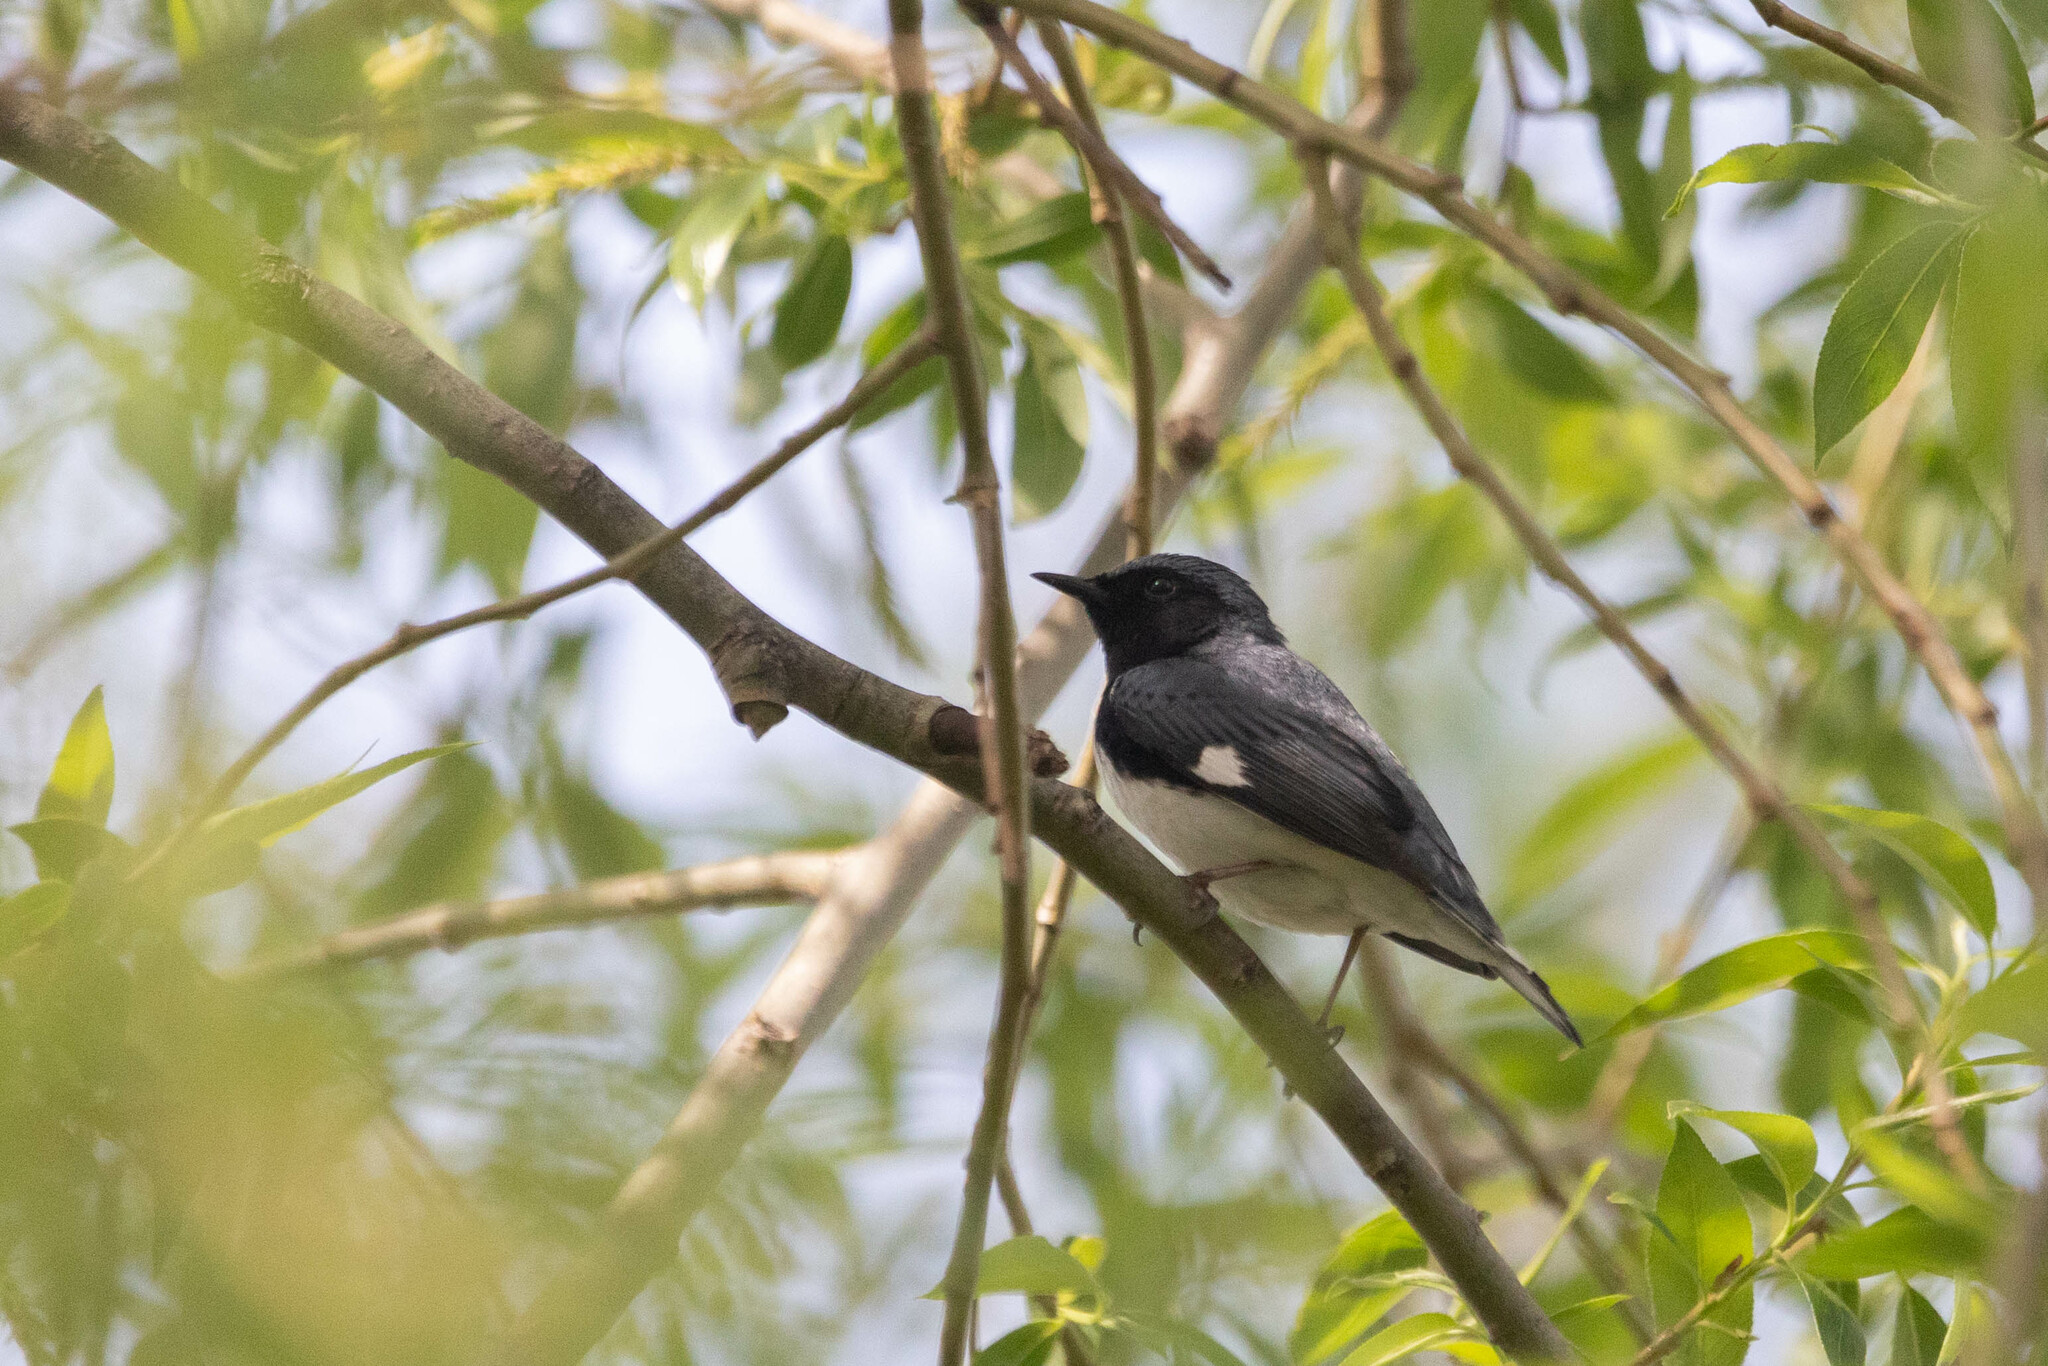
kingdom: Animalia
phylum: Chordata
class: Aves
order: Passeriformes
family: Parulidae
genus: Setophaga
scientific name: Setophaga caerulescens
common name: Black-throated blue warbler
